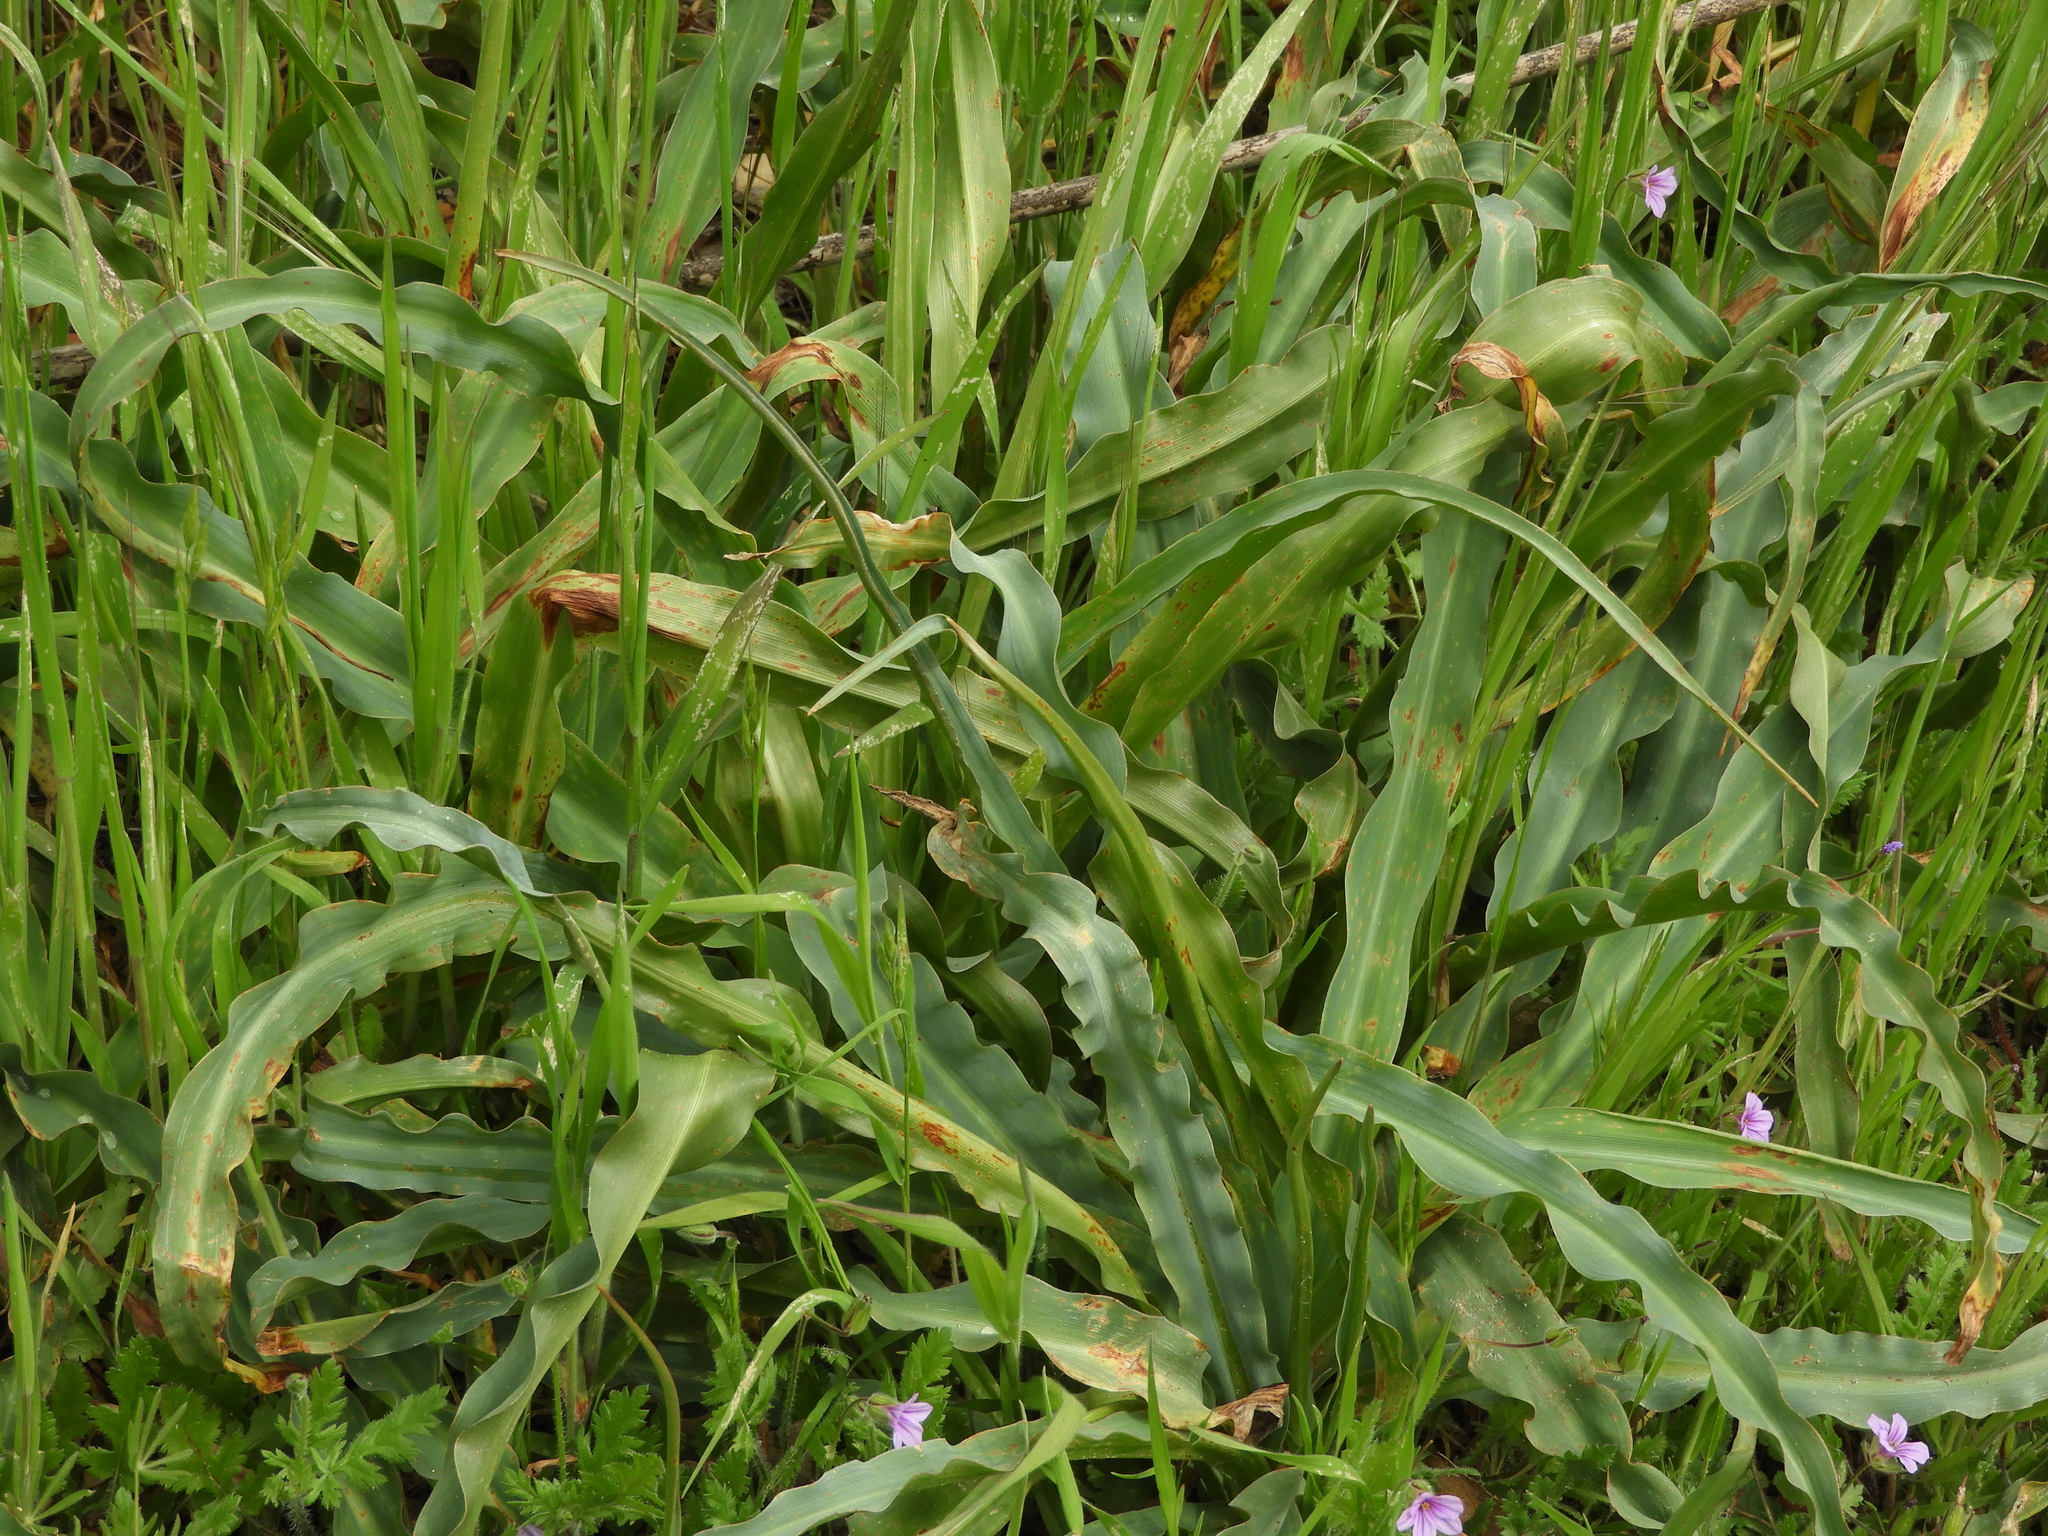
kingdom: Plantae
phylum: Tracheophyta
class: Liliopsida
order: Asparagales
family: Asparagaceae
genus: Chlorogalum
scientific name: Chlorogalum pomeridianum
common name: Amole
